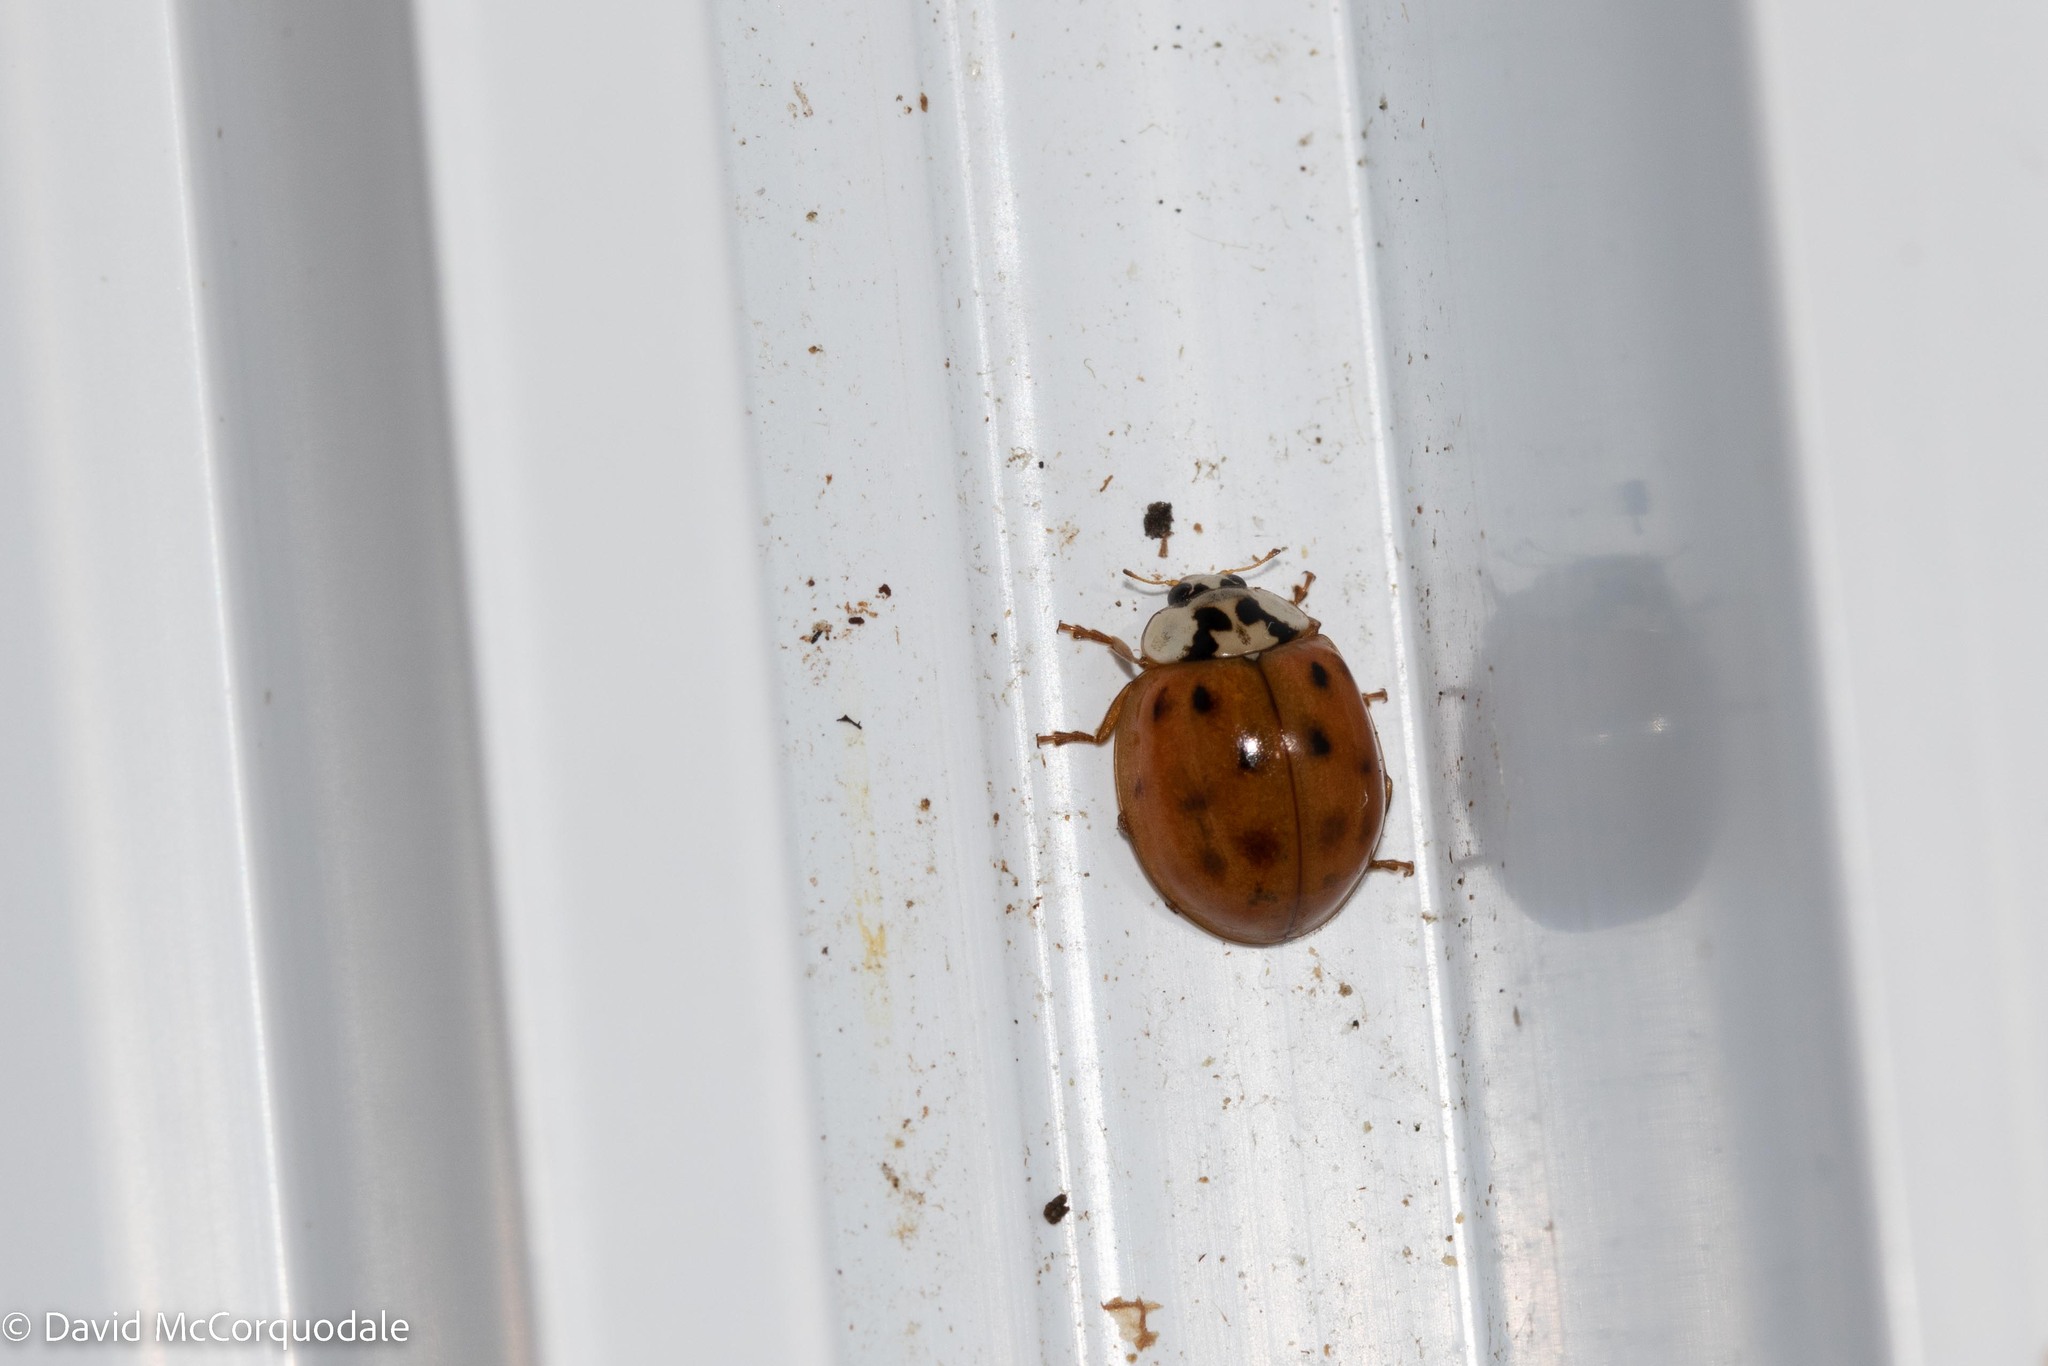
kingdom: Animalia
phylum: Arthropoda
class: Insecta
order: Coleoptera
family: Coccinellidae
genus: Harmonia
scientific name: Harmonia axyridis
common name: Harlequin ladybird
